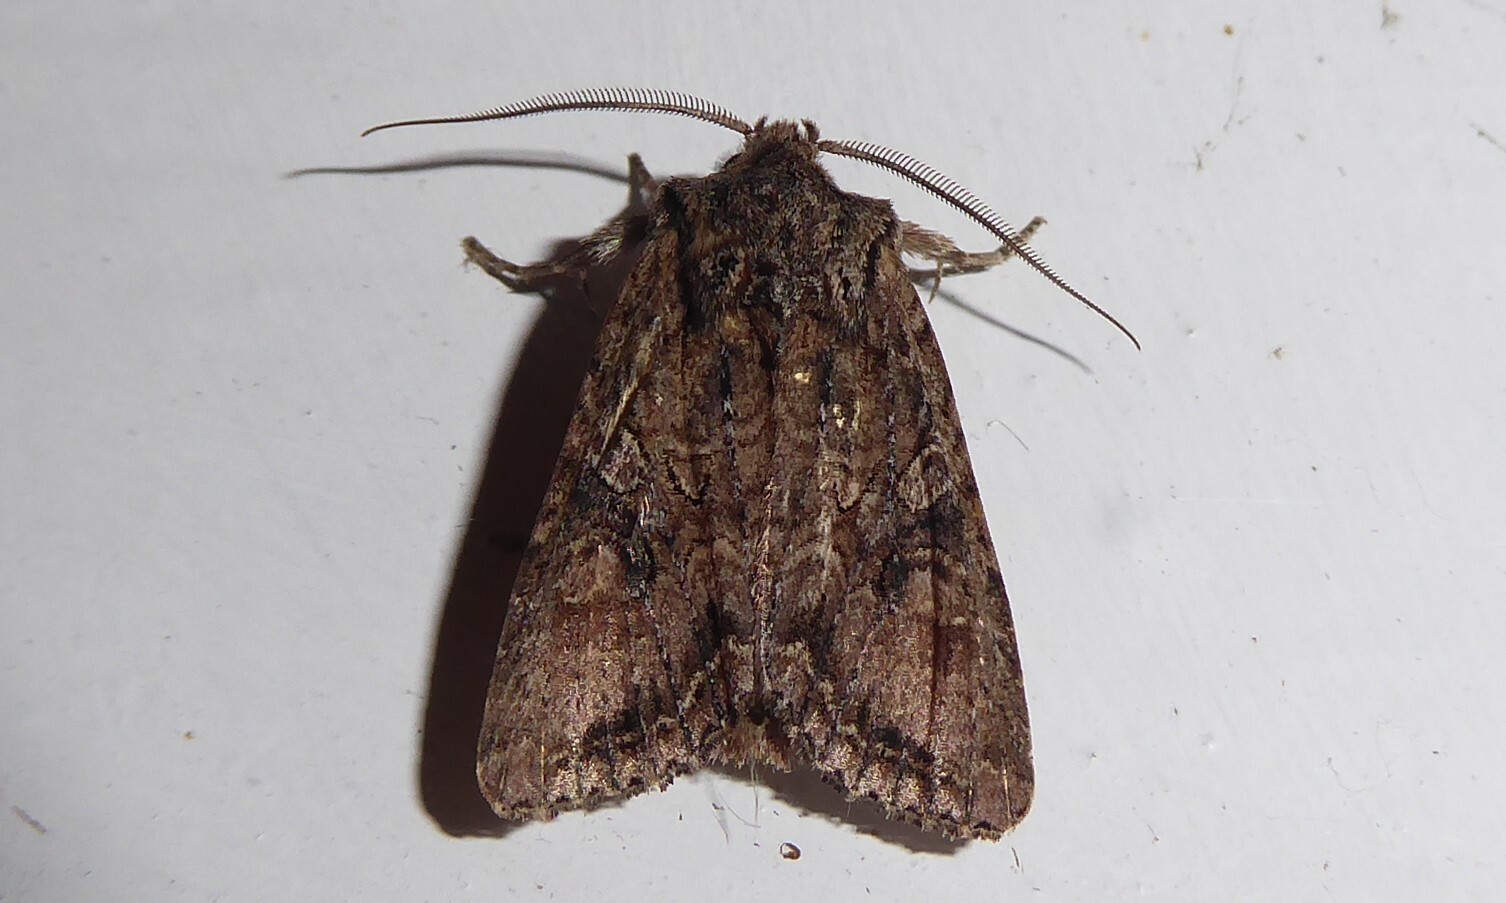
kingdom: Animalia
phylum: Arthropoda
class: Insecta
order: Lepidoptera
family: Noctuidae
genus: Ichneutica
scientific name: Ichneutica mutans
